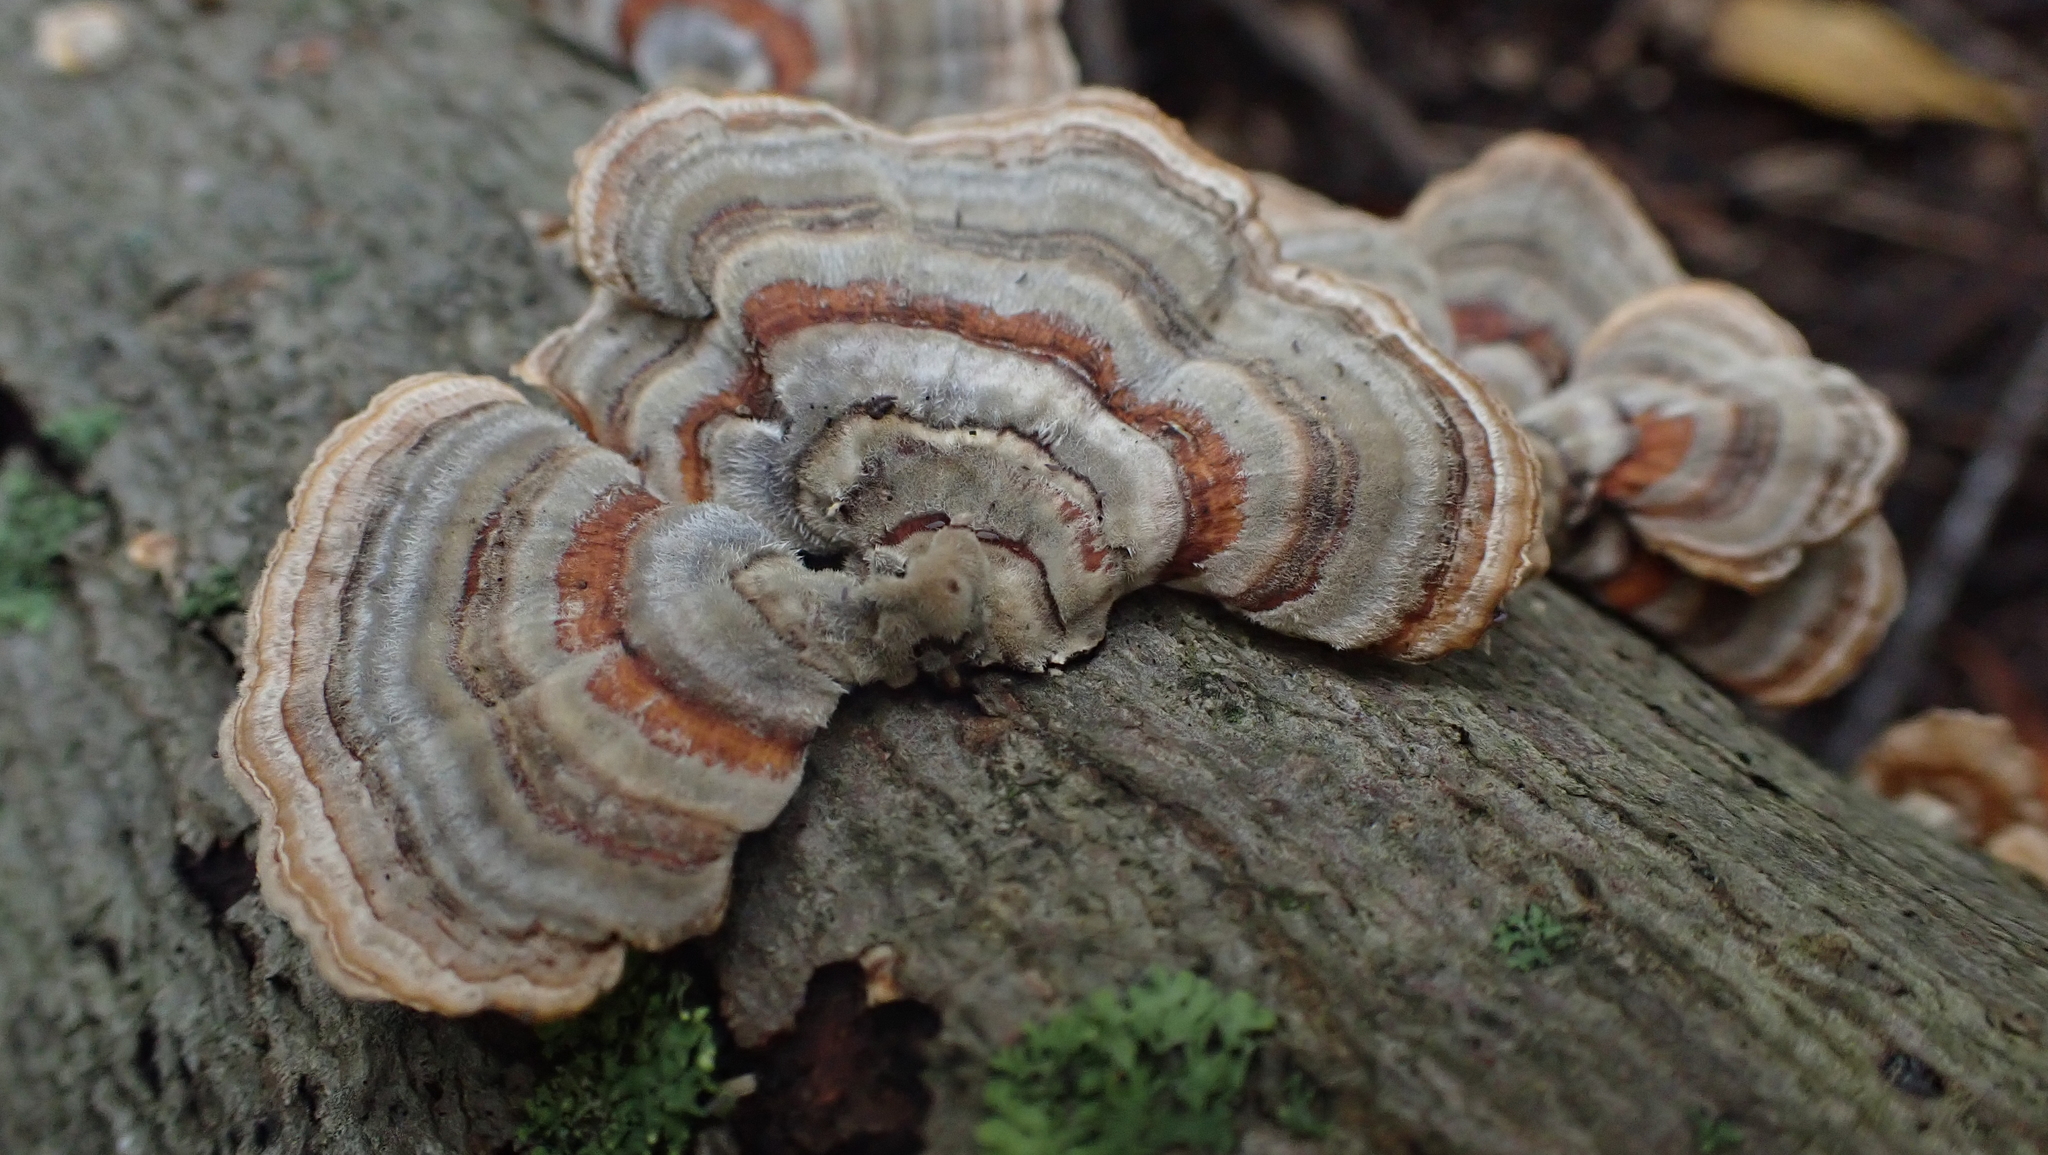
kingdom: Fungi
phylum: Basidiomycota
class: Agaricomycetes
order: Polyporales
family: Polyporaceae
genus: Trametes
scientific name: Trametes versicolor
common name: Turkeytail
